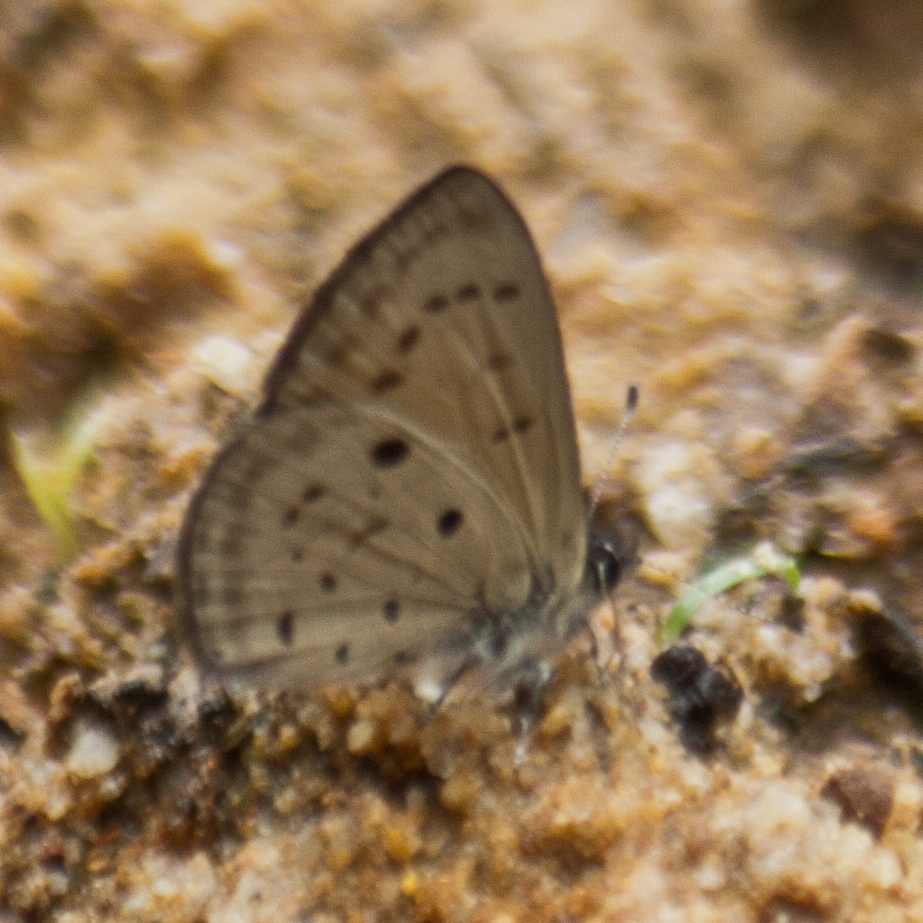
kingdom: Animalia
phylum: Arthropoda
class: Insecta
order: Lepidoptera
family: Lycaenidae
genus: Una
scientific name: Una usta
